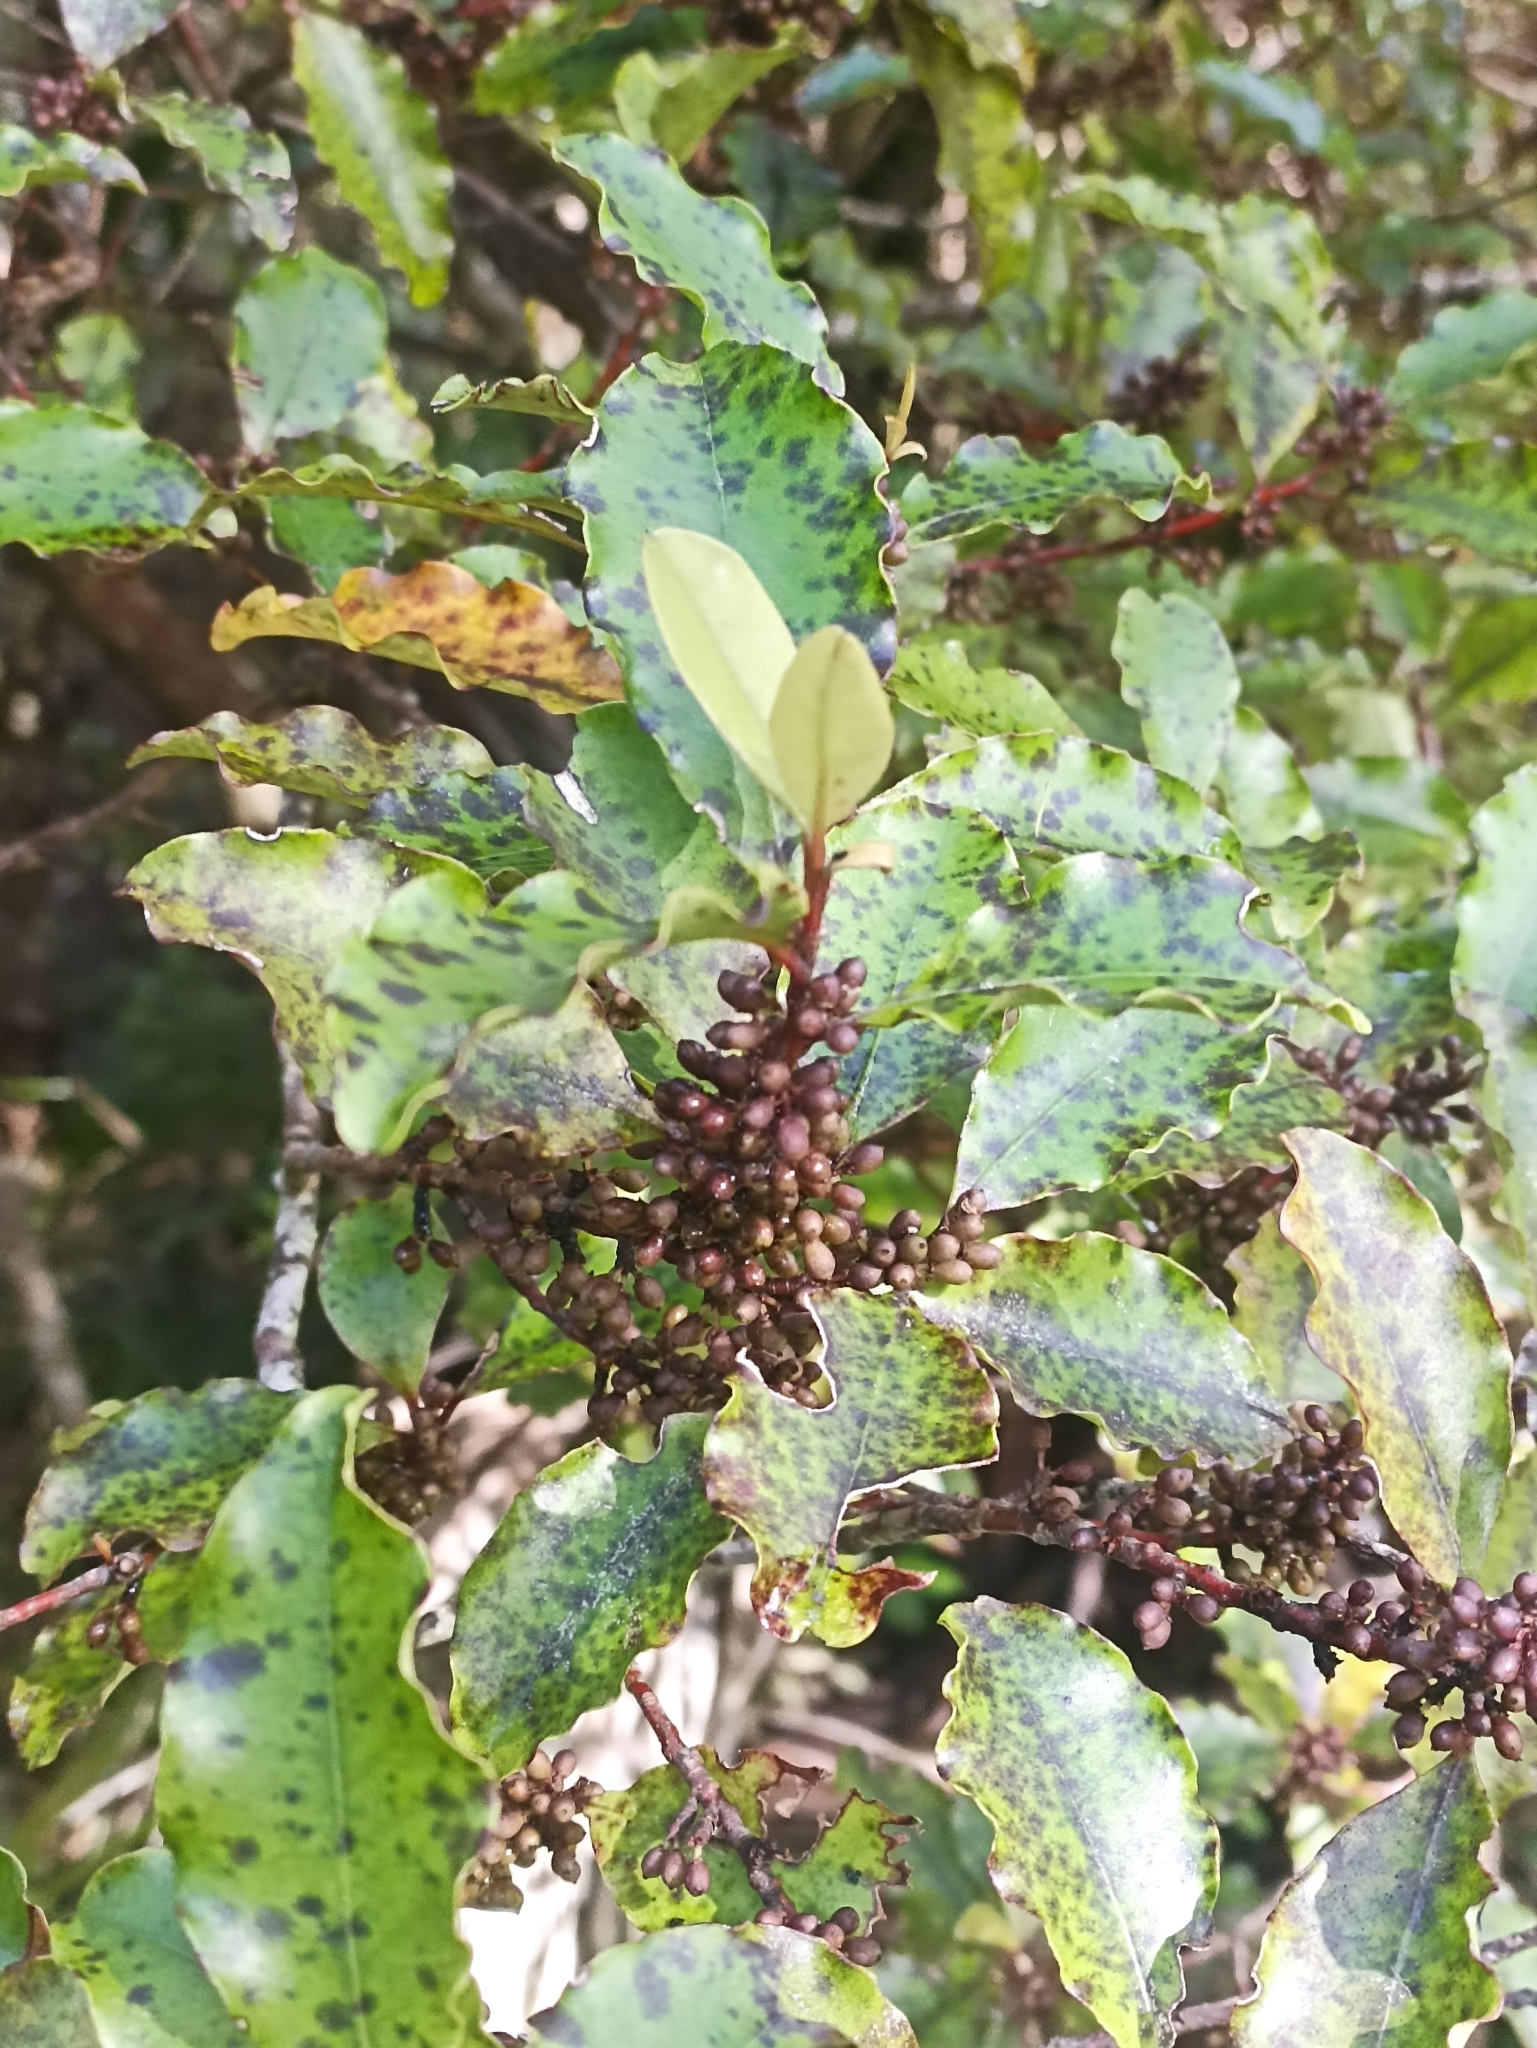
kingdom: Plantae
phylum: Tracheophyta
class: Magnoliopsida
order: Ericales
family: Primulaceae
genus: Myrsine
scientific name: Myrsine australis
